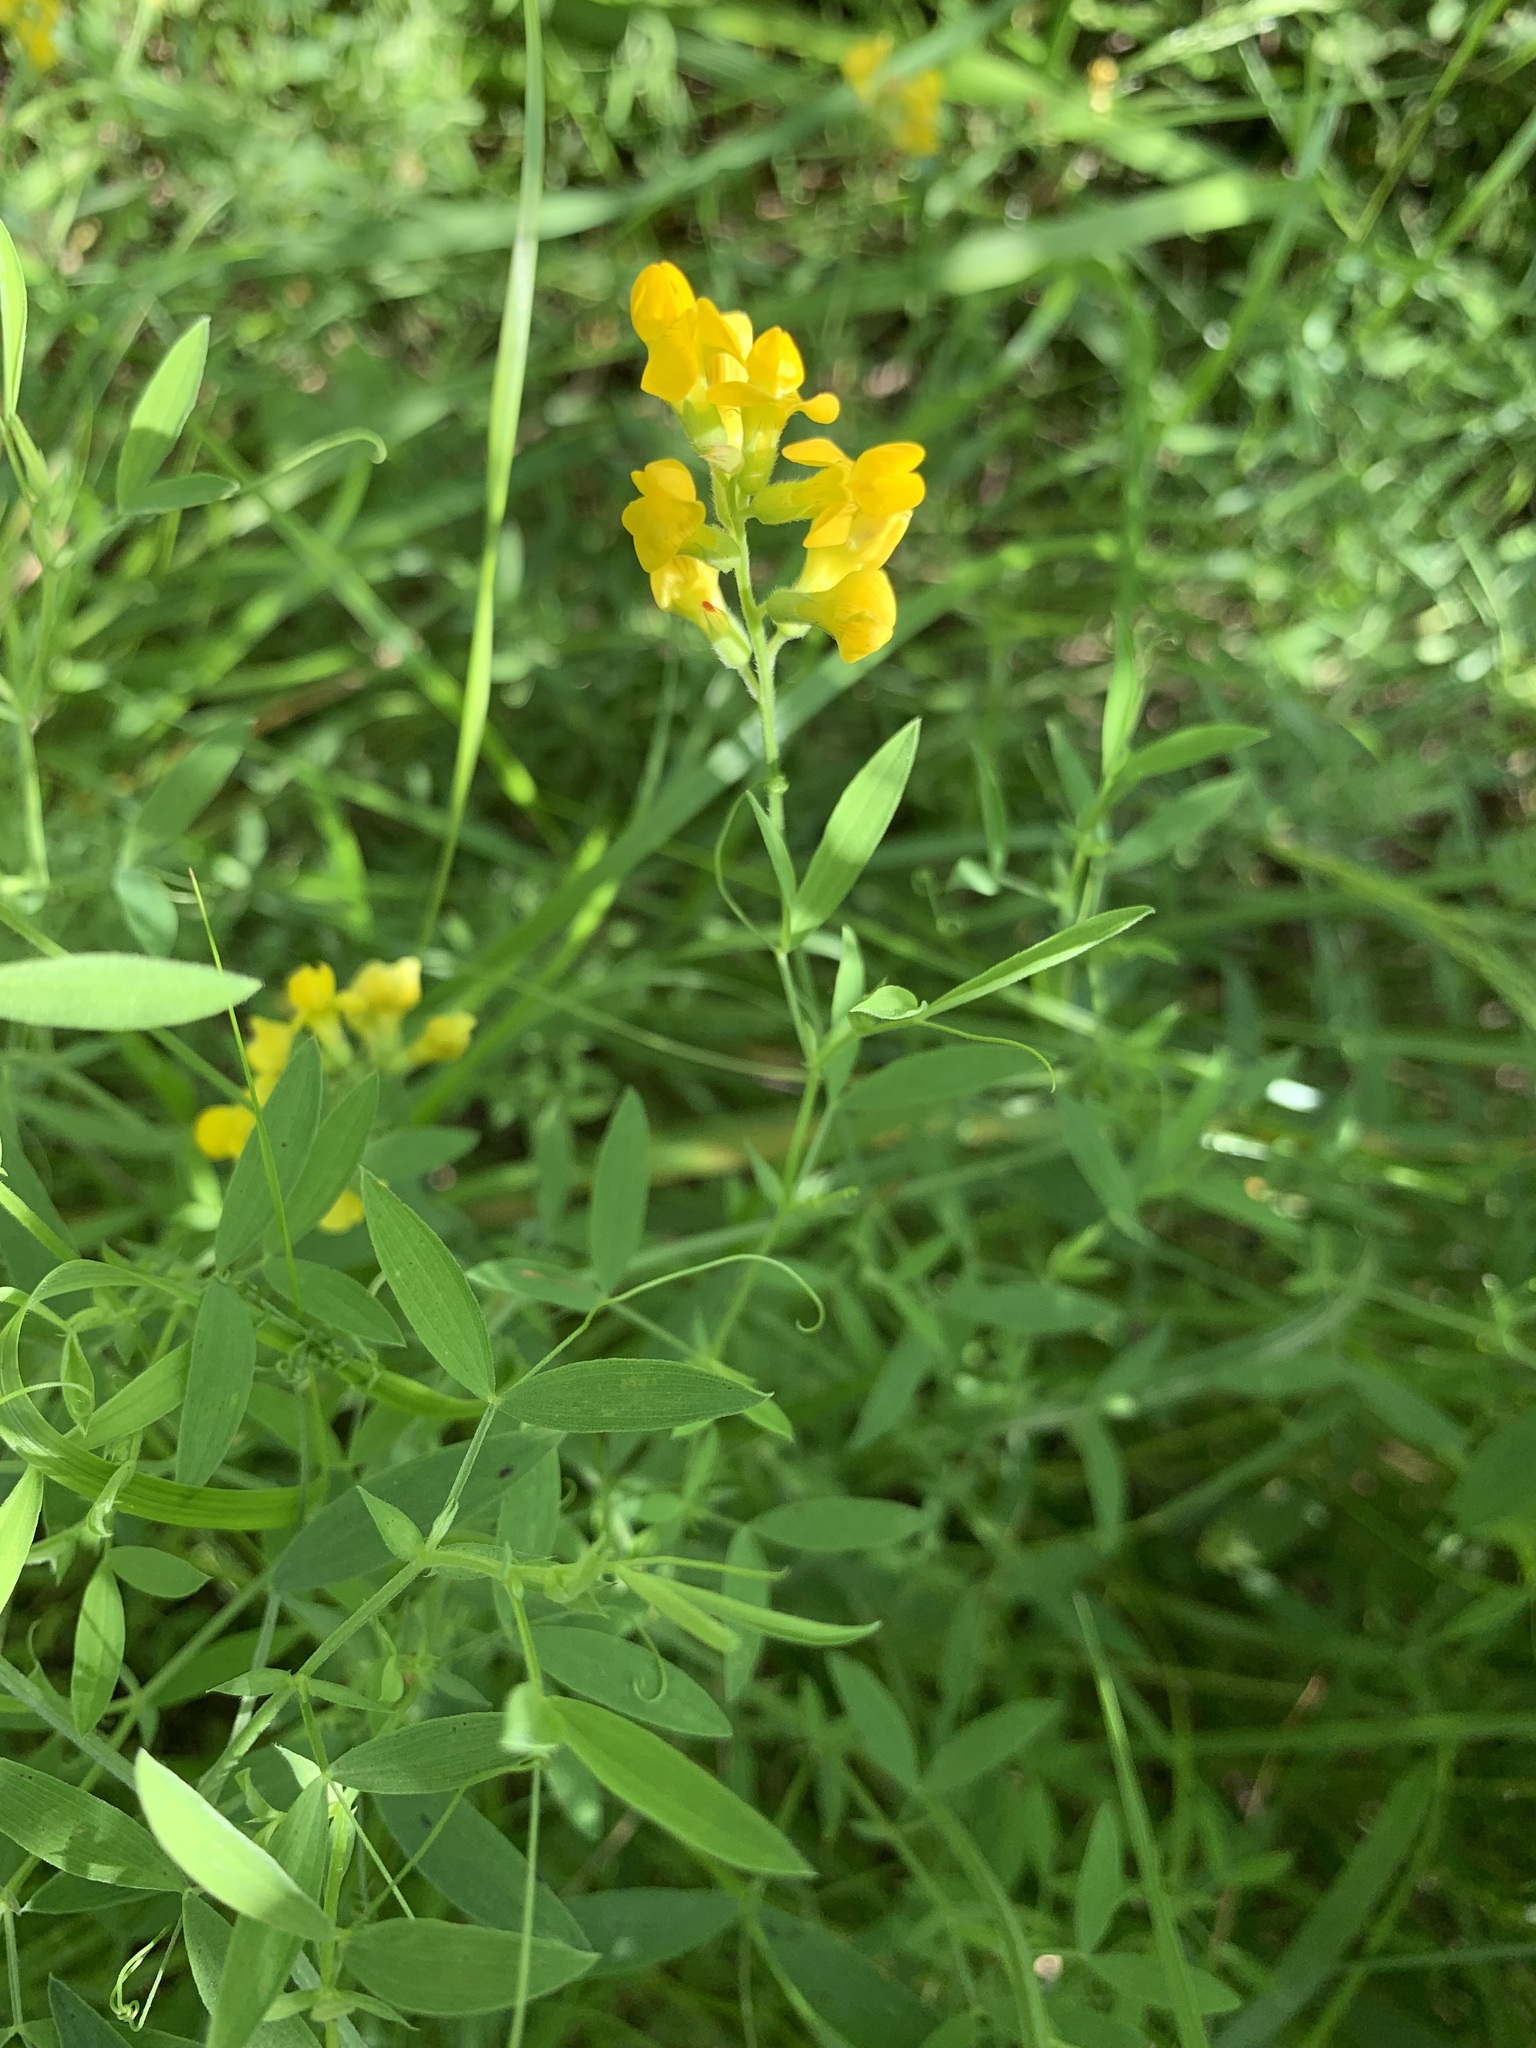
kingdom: Plantae
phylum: Tracheophyta
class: Magnoliopsida
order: Fabales
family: Fabaceae
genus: Lathyrus
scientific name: Lathyrus pratensis
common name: Meadow vetchling
